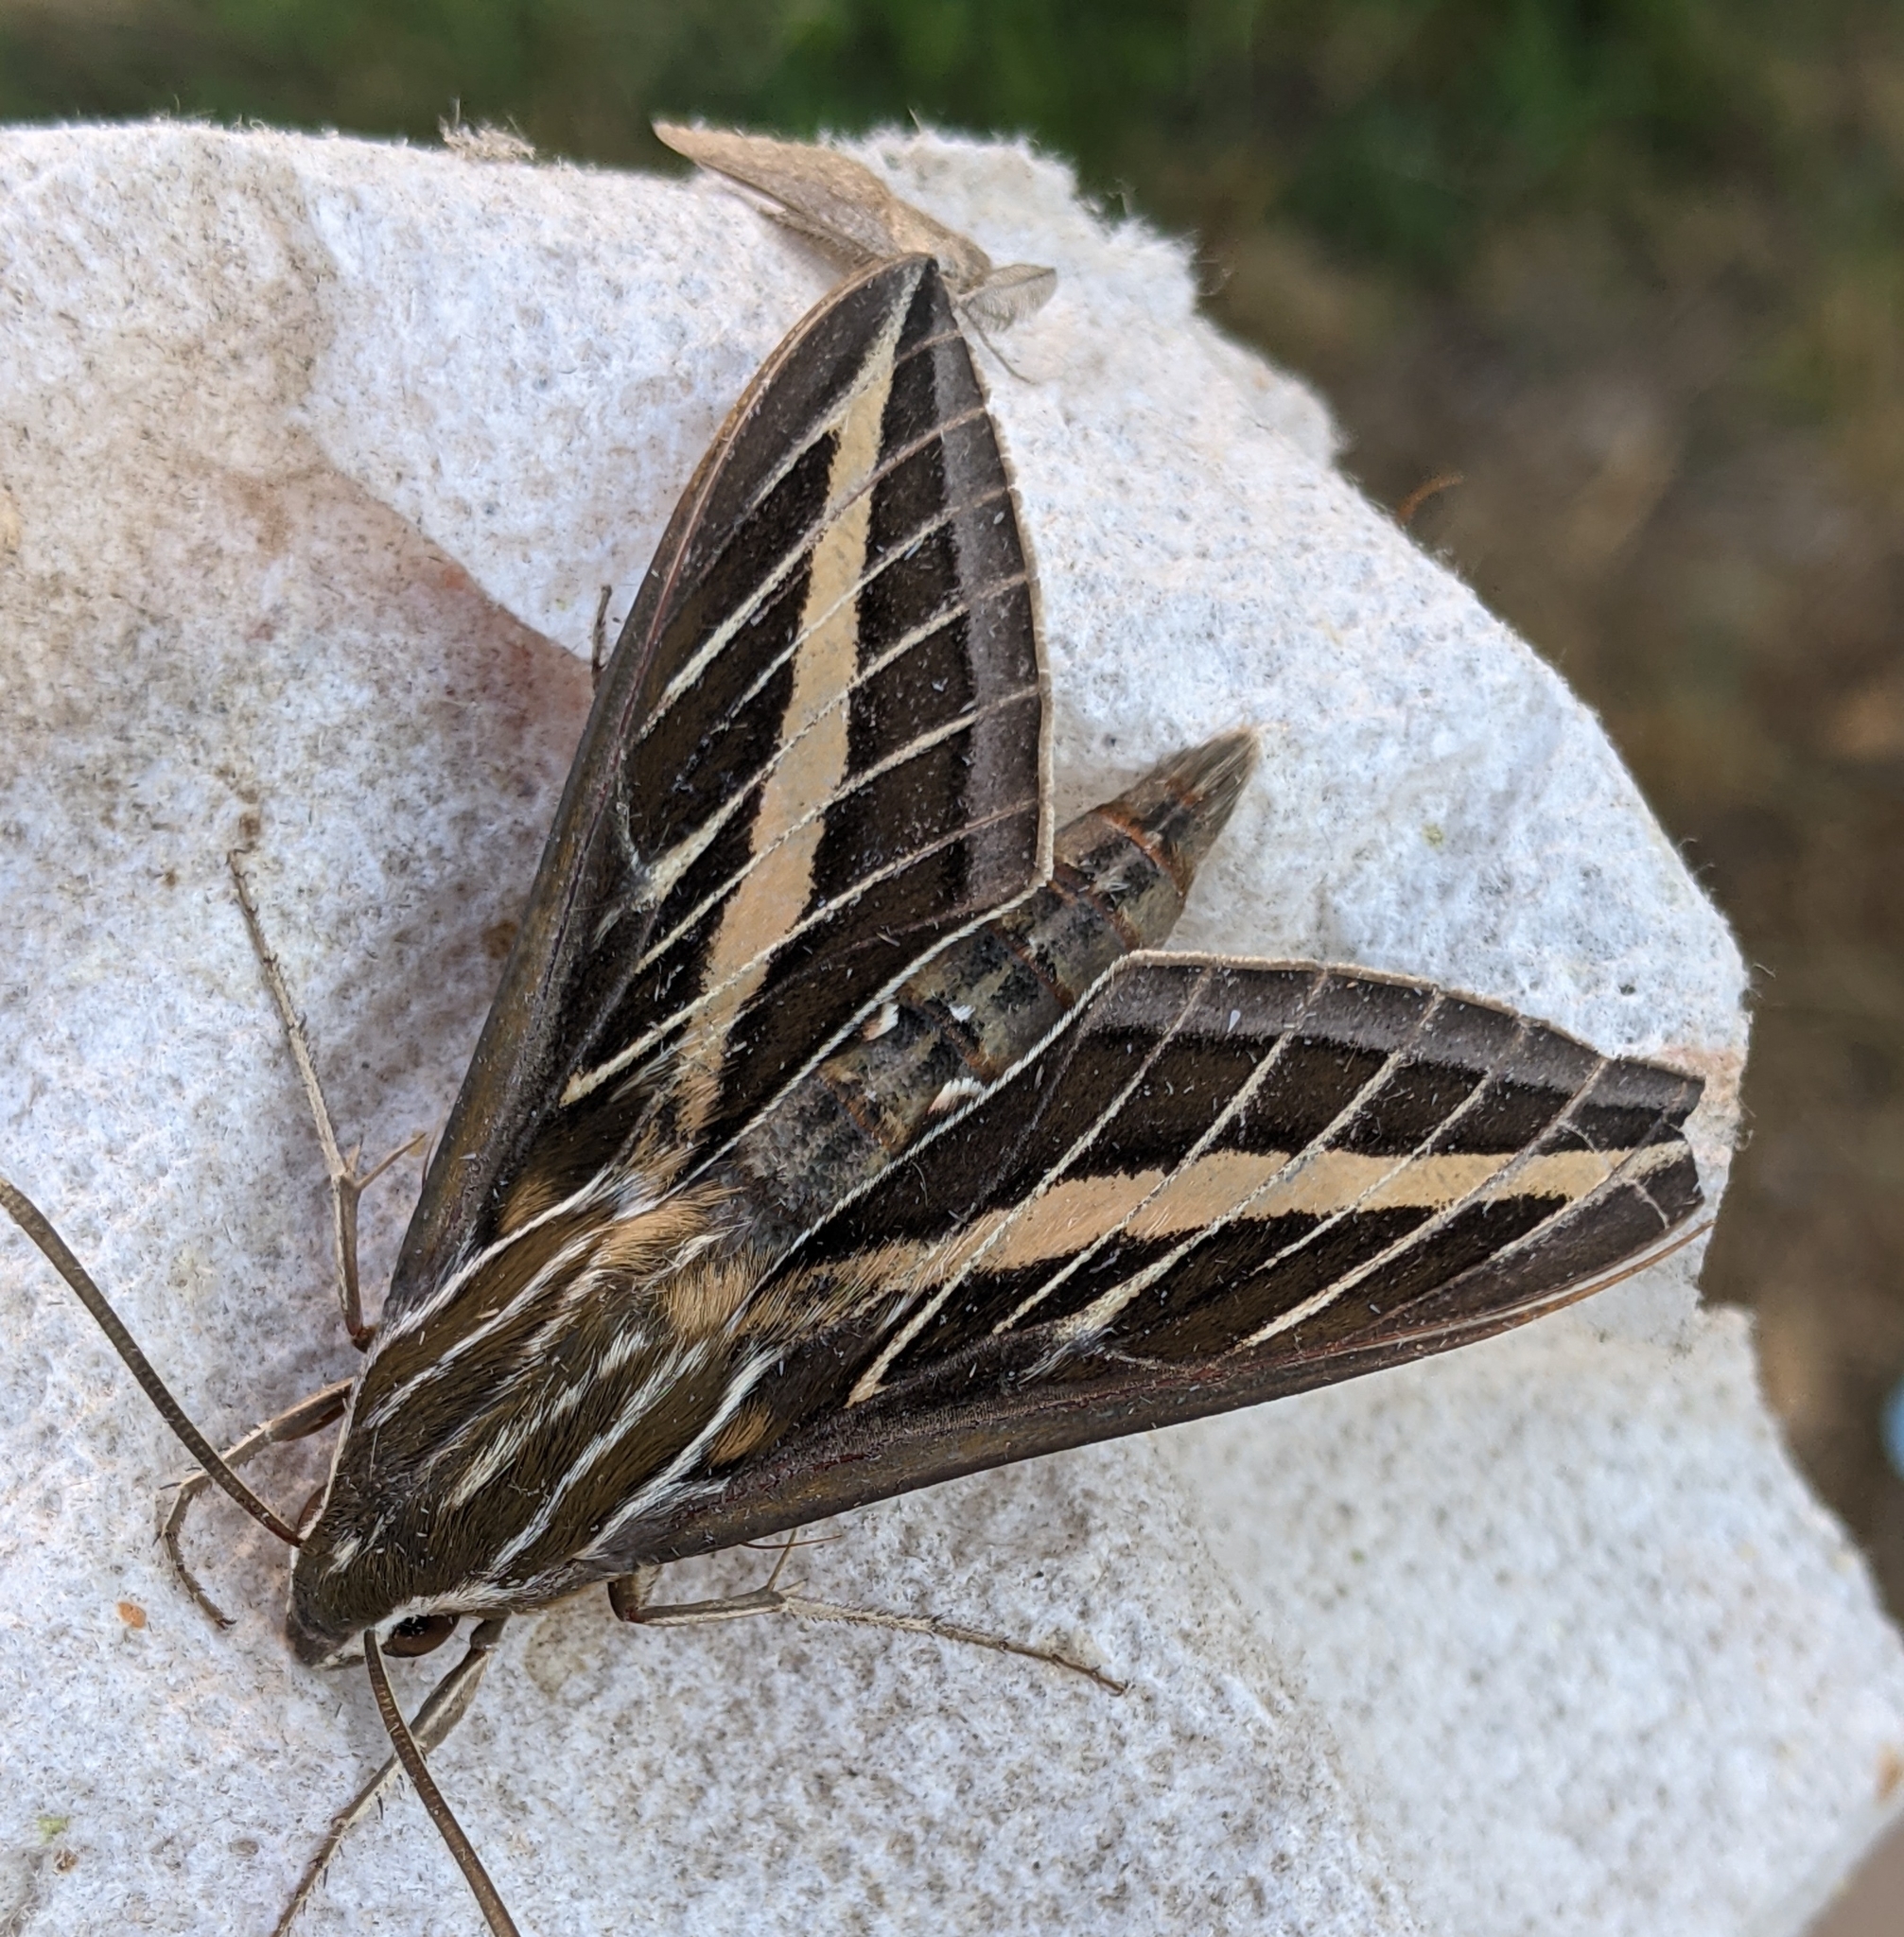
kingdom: Animalia
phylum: Arthropoda
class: Insecta
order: Lepidoptera
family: Sphingidae
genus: Hyles
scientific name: Hyles lineata
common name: White-lined sphinx
